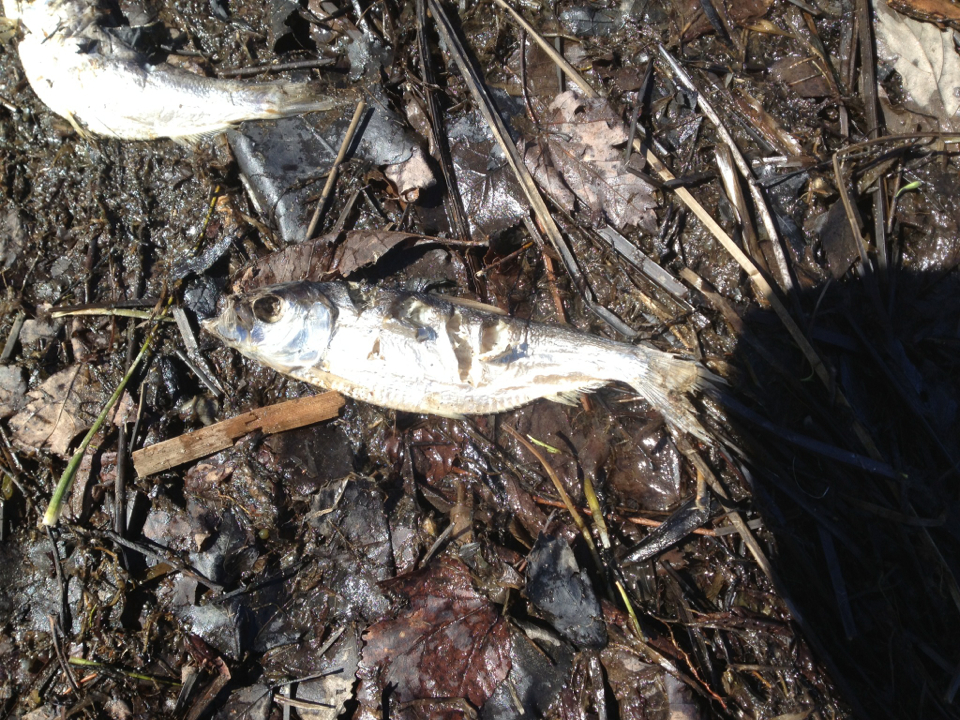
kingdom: Animalia
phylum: Chordata
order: Clupeiformes
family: Clupeidae
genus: Alosa
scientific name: Alosa pseudoharengus
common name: Alewife
